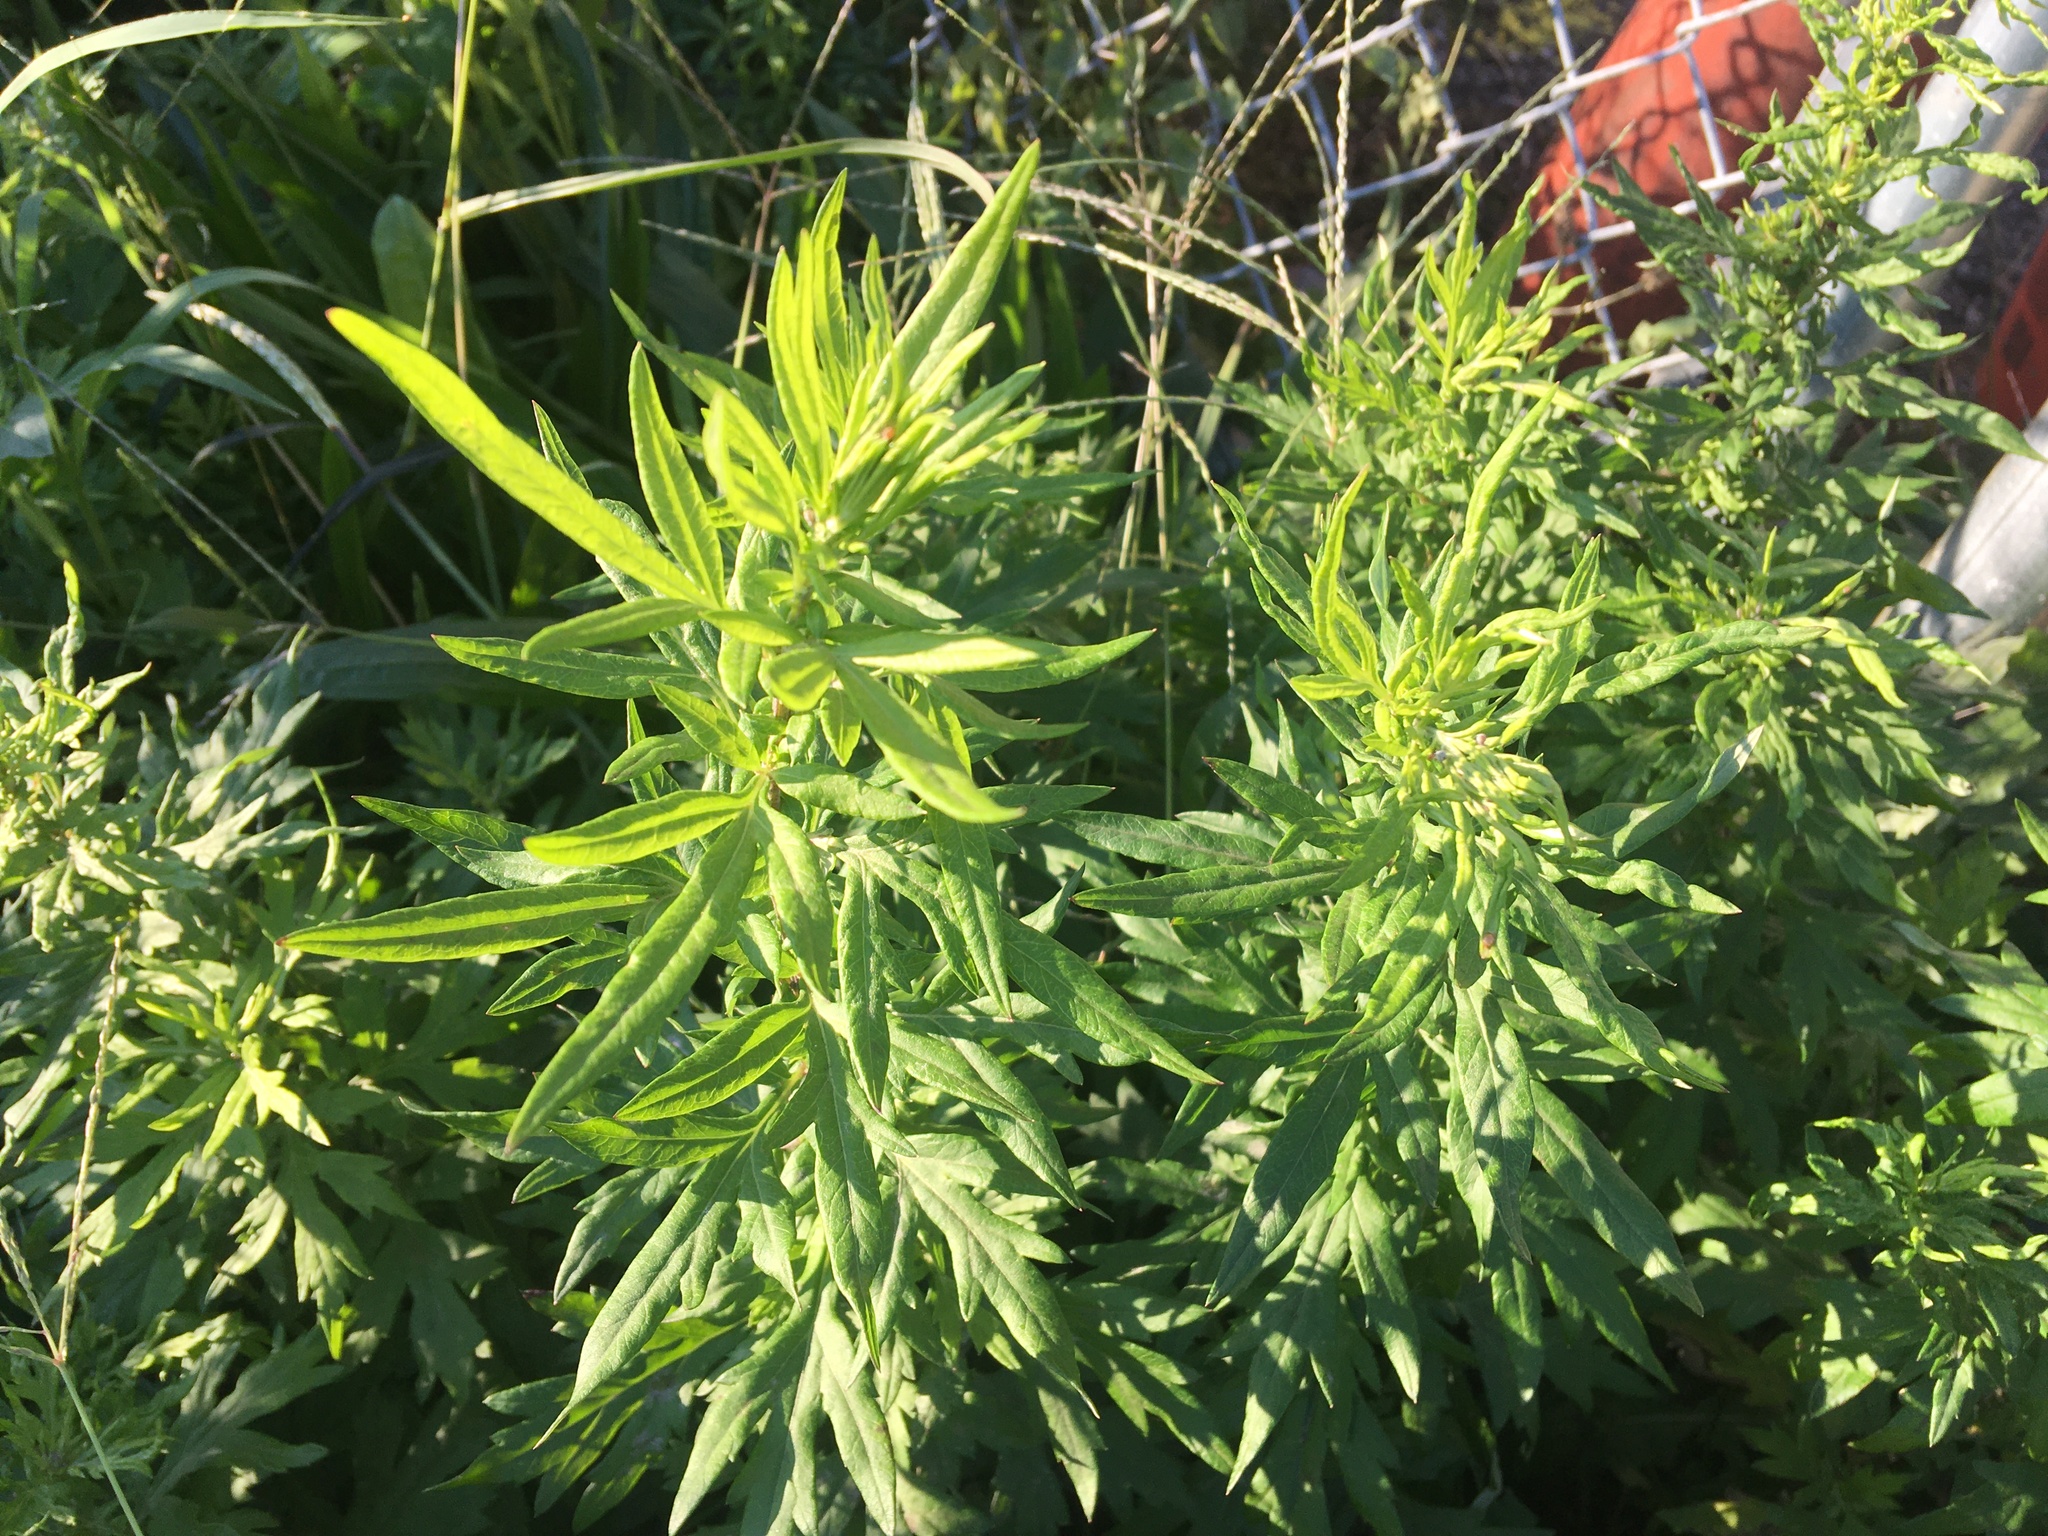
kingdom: Plantae
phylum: Tracheophyta
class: Magnoliopsida
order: Asterales
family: Asteraceae
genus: Artemisia
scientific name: Artemisia vulgaris
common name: Mugwort
